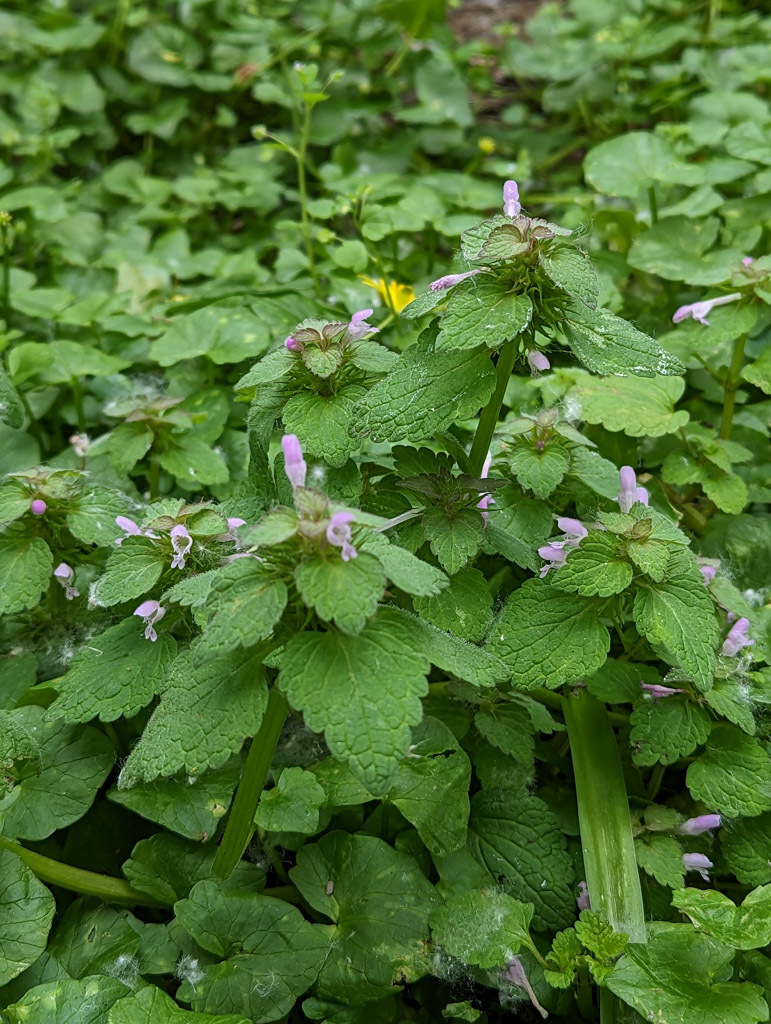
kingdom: Plantae
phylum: Tracheophyta
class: Magnoliopsida
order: Lamiales
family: Lamiaceae
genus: Lamium
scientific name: Lamium purpureum
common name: Red dead-nettle
